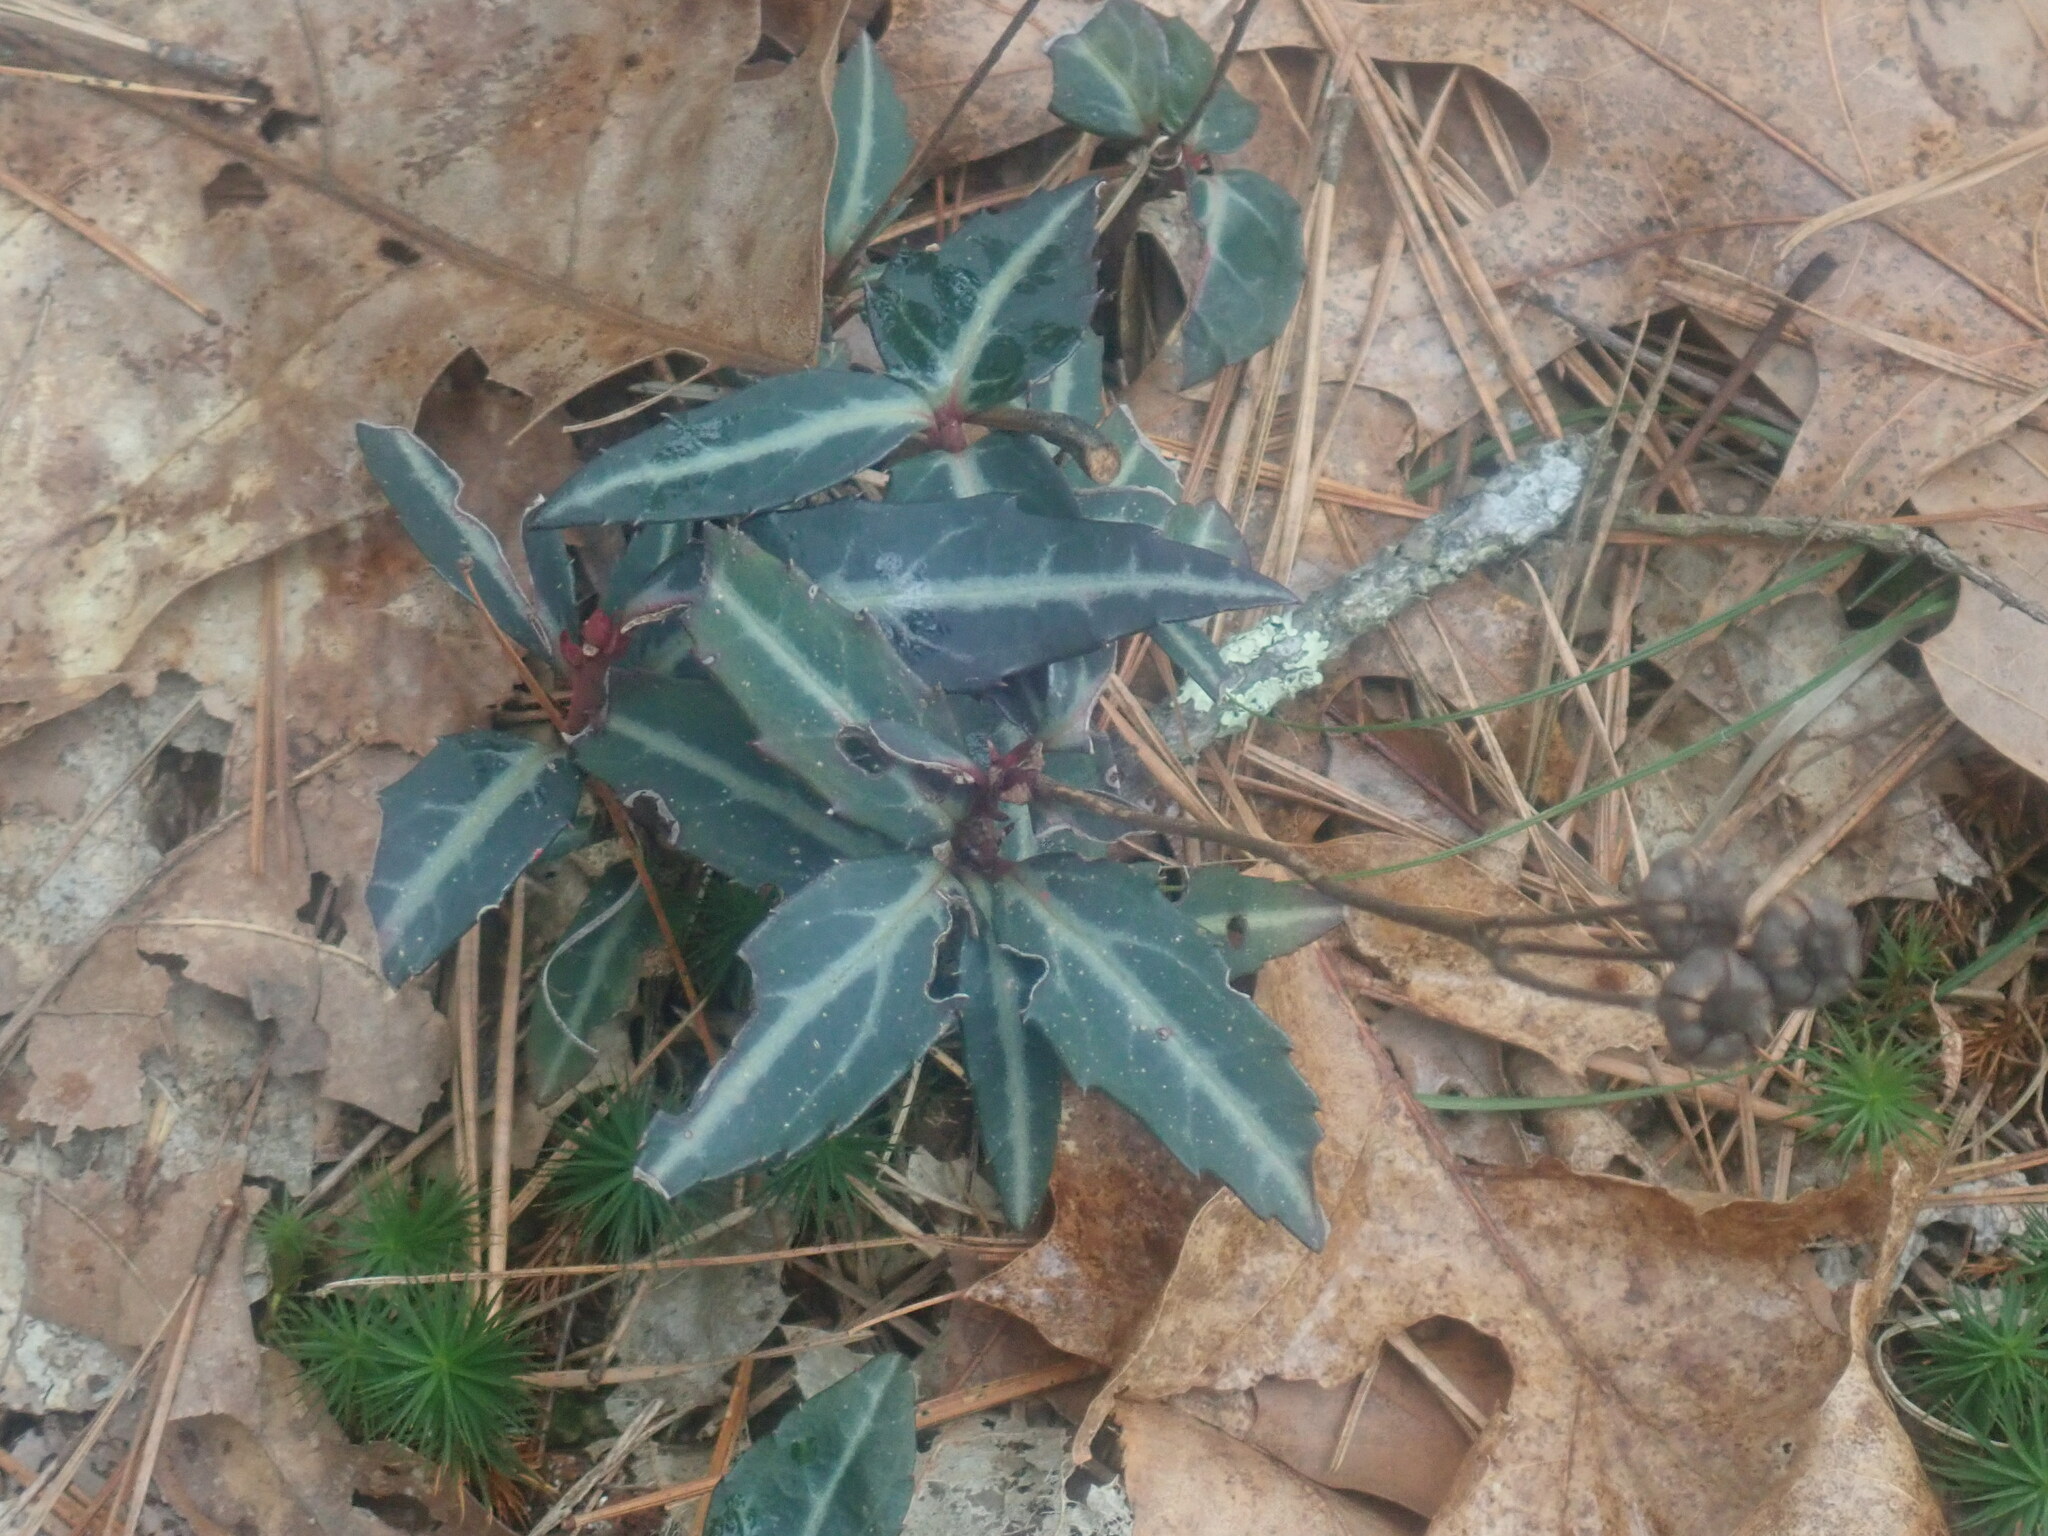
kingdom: Plantae
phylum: Tracheophyta
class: Magnoliopsida
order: Ericales
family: Ericaceae
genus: Chimaphila
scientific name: Chimaphila maculata
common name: Spotted pipsissewa
